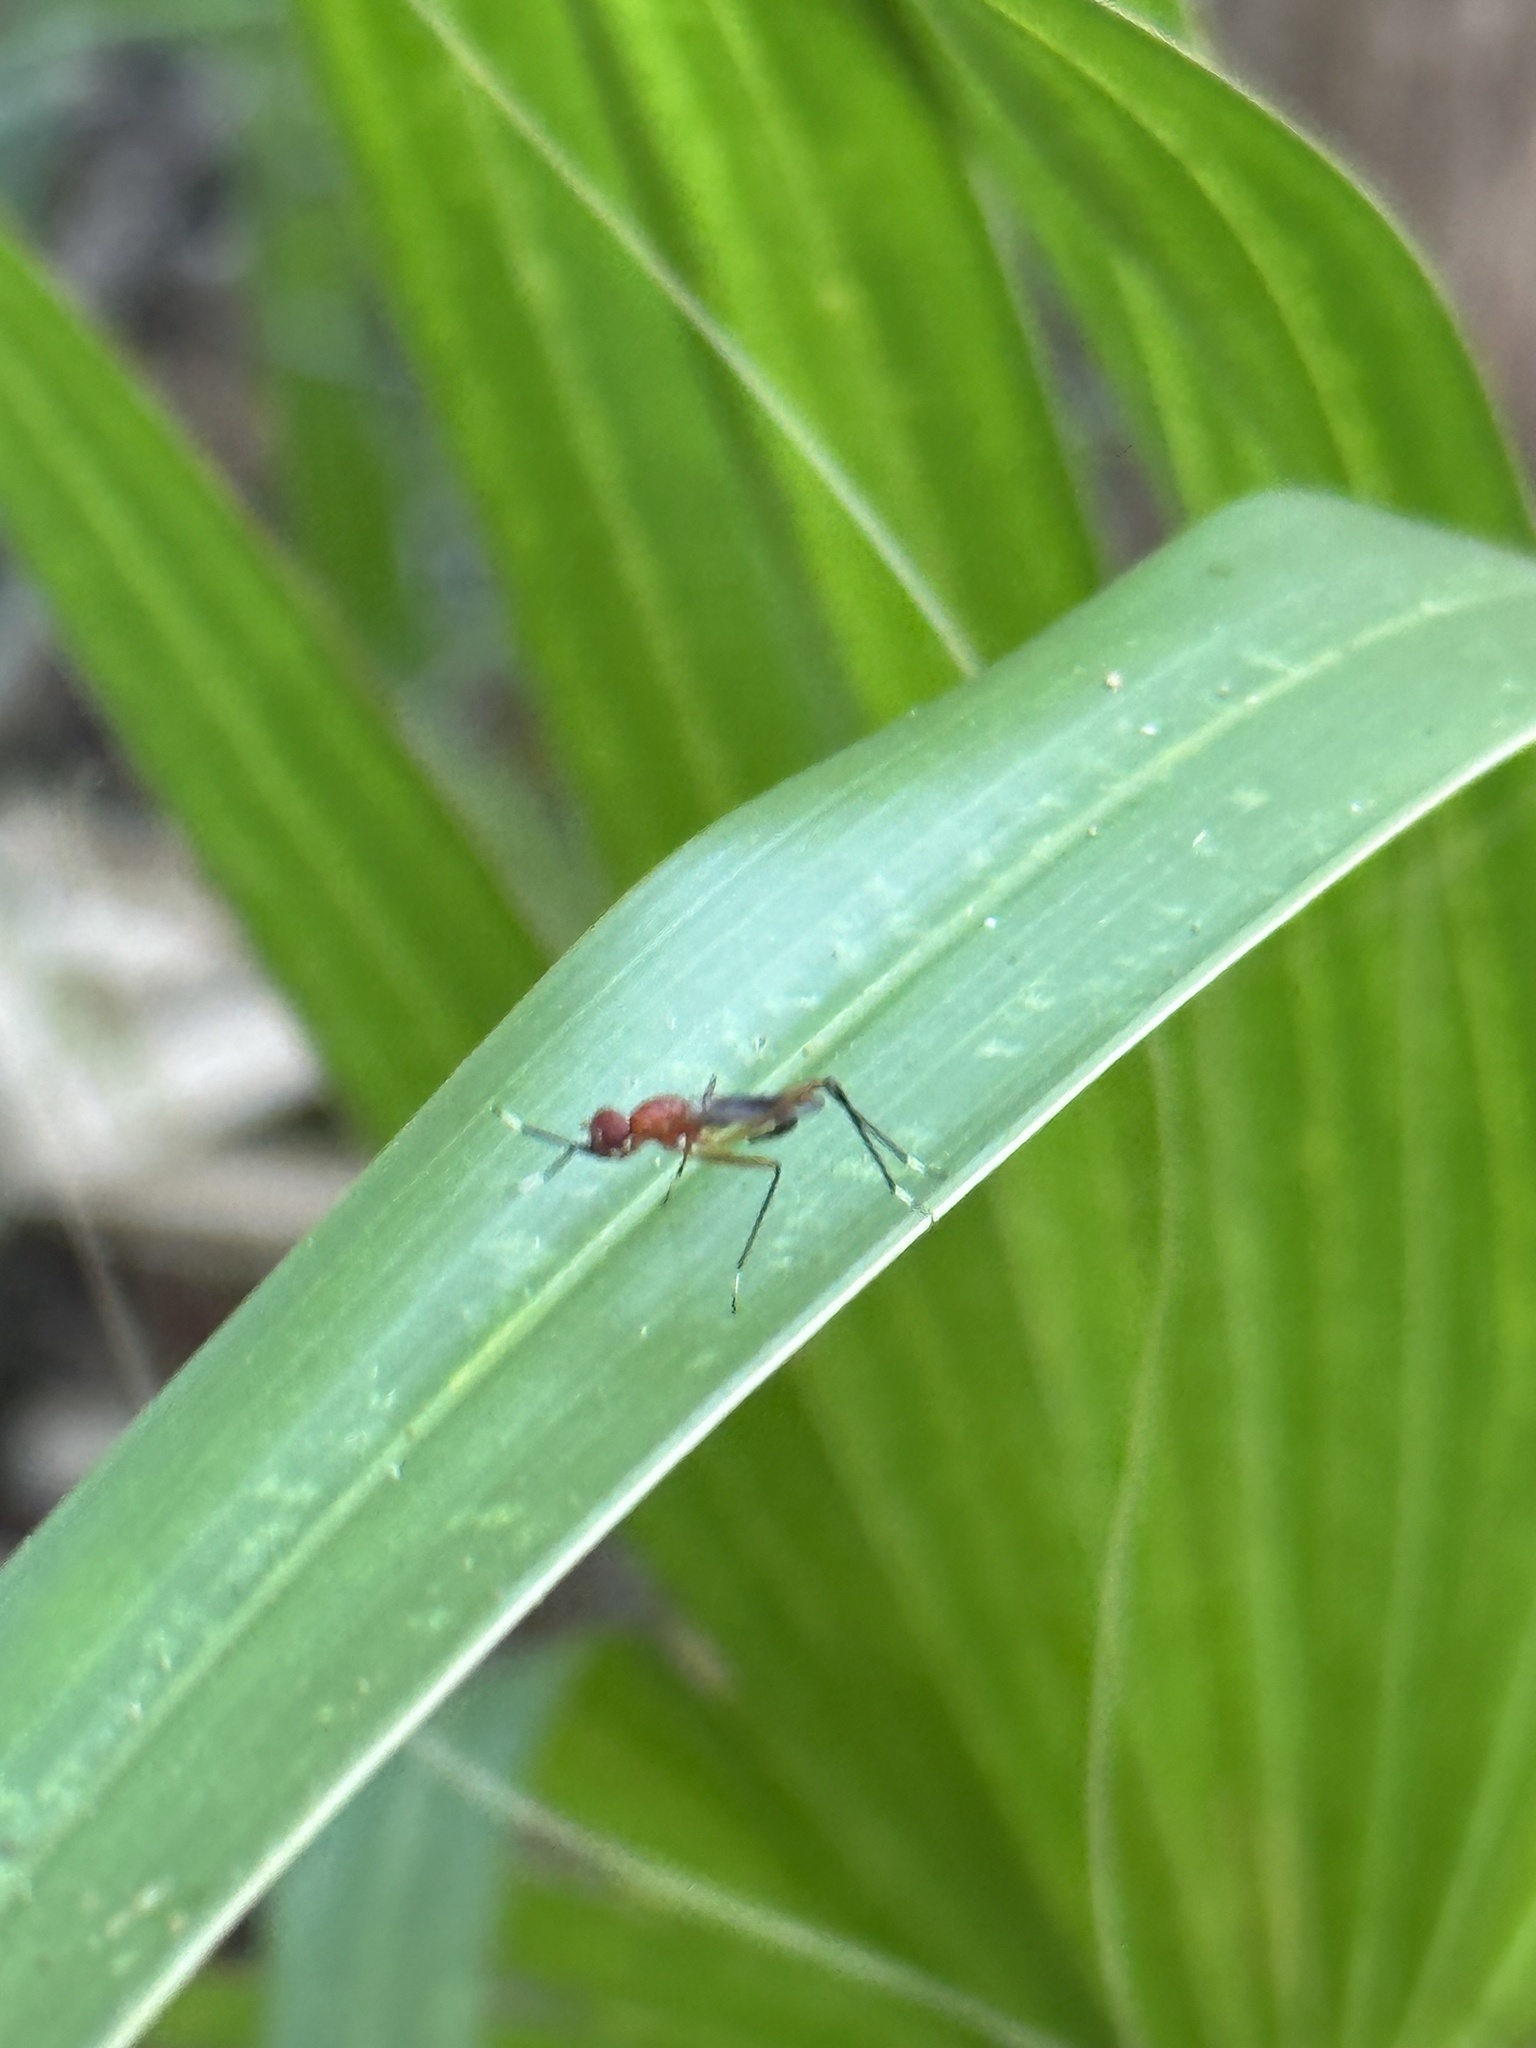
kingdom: Animalia
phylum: Arthropoda
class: Insecta
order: Diptera
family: Micropezidae
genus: Grallipeza
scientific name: Grallipeza nebulosa
